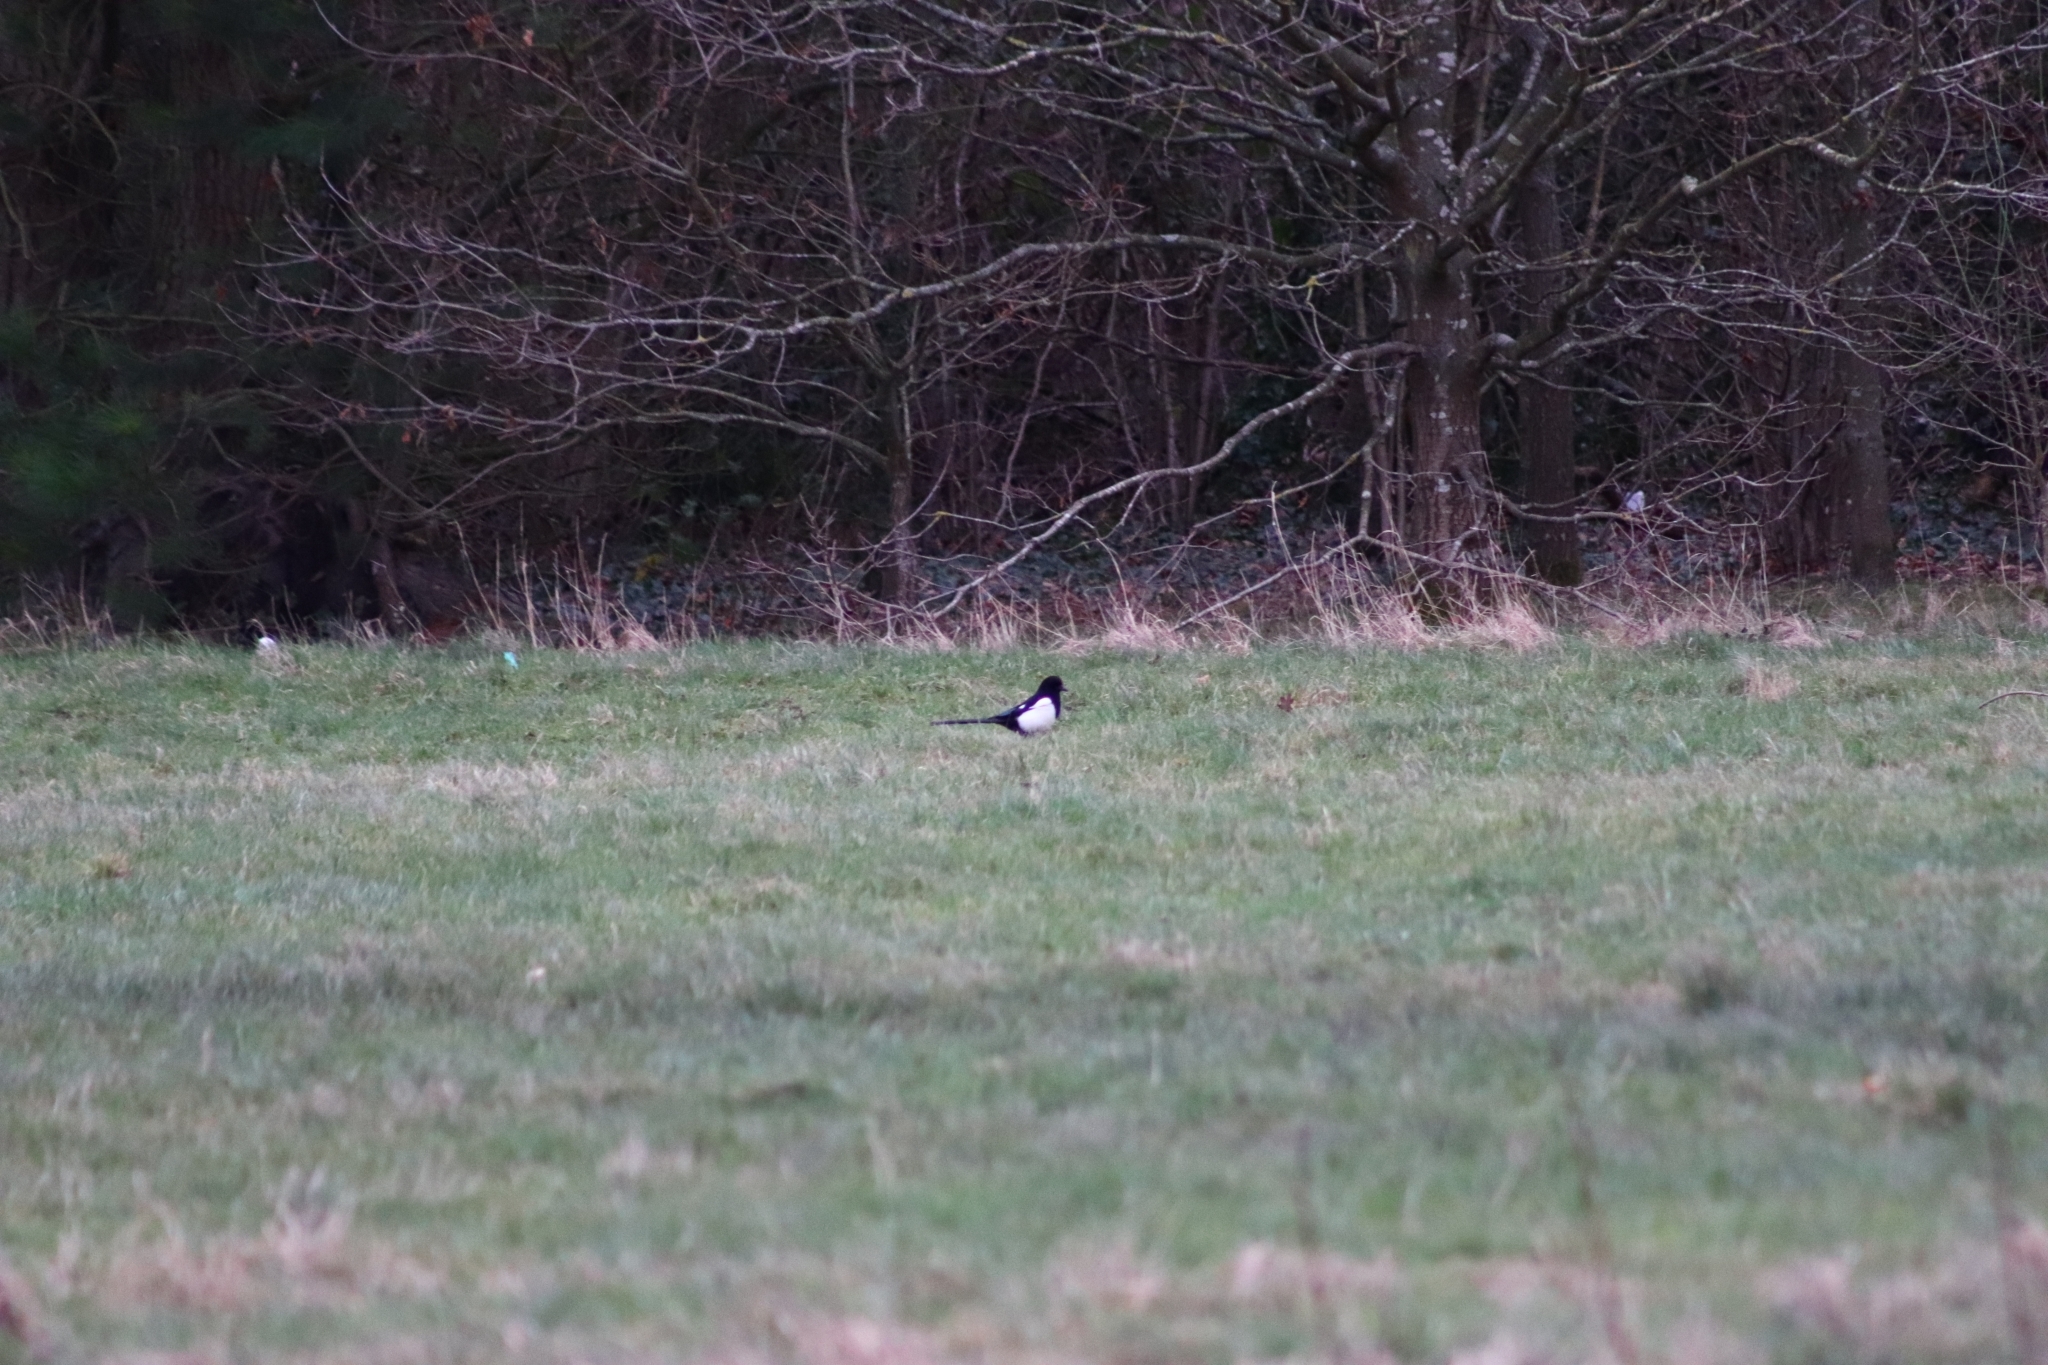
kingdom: Animalia
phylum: Chordata
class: Aves
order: Passeriformes
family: Corvidae
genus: Pica
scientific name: Pica pica
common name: Eurasian magpie
